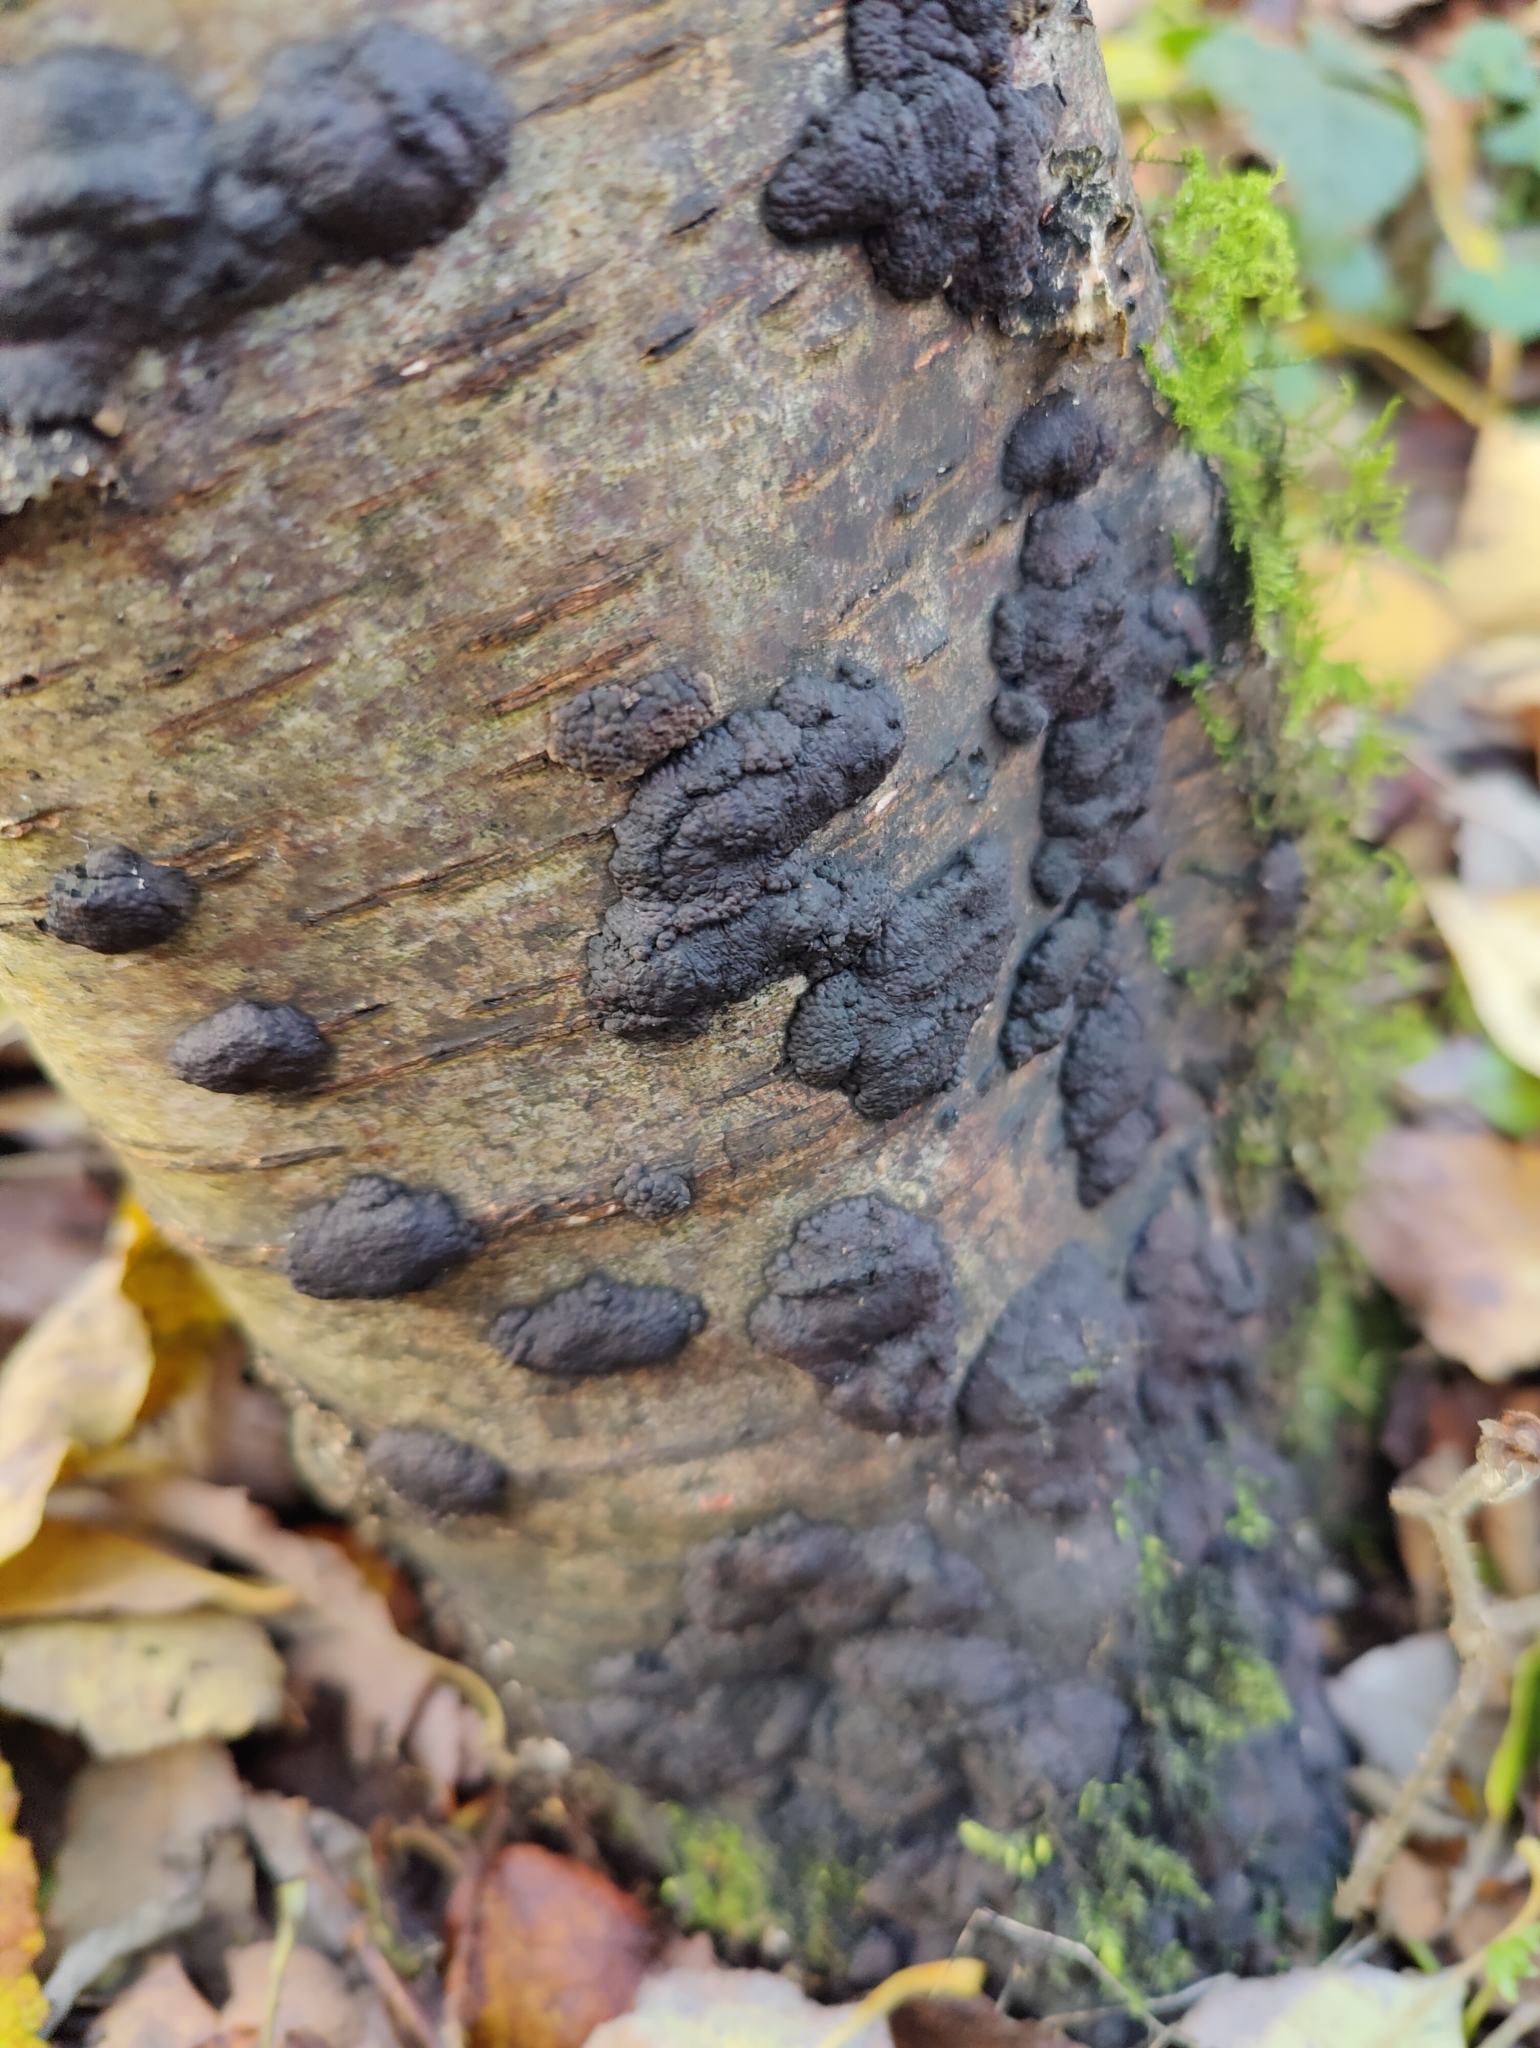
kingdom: Fungi
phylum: Ascomycota
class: Sordariomycetes
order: Xylariales
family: Hypoxylaceae
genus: Jackrogersella
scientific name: Jackrogersella multiformis
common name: Birch woodwart
